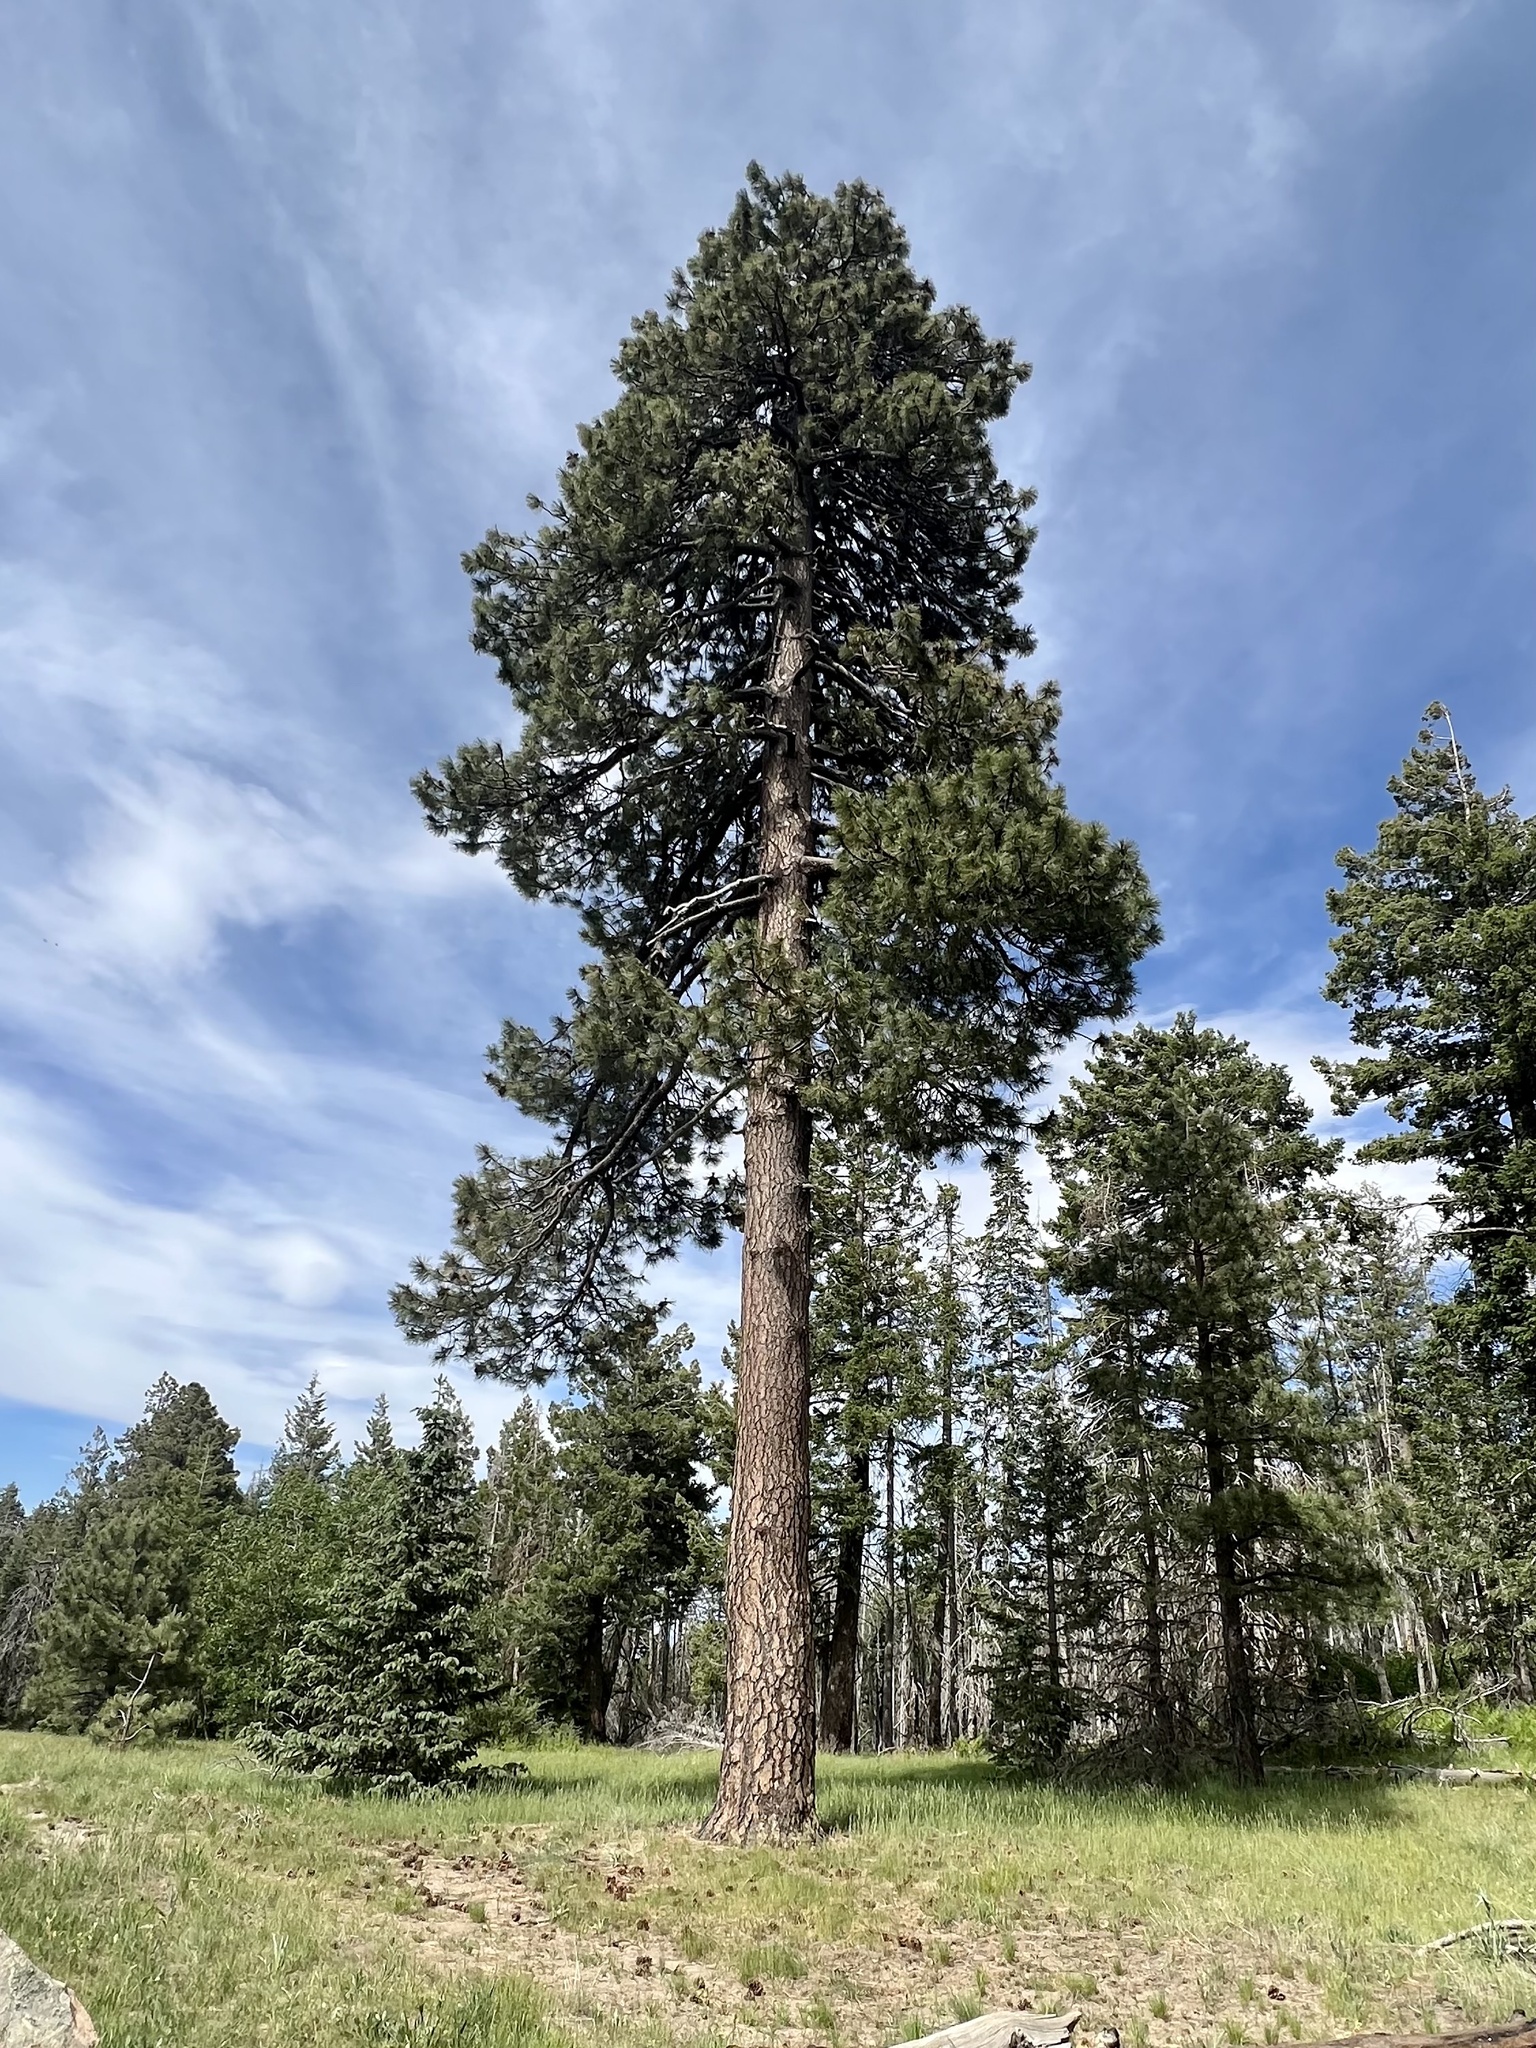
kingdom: Plantae
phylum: Tracheophyta
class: Pinopsida
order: Pinales
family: Pinaceae
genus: Pinus
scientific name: Pinus ponderosa
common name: Western yellow-pine
